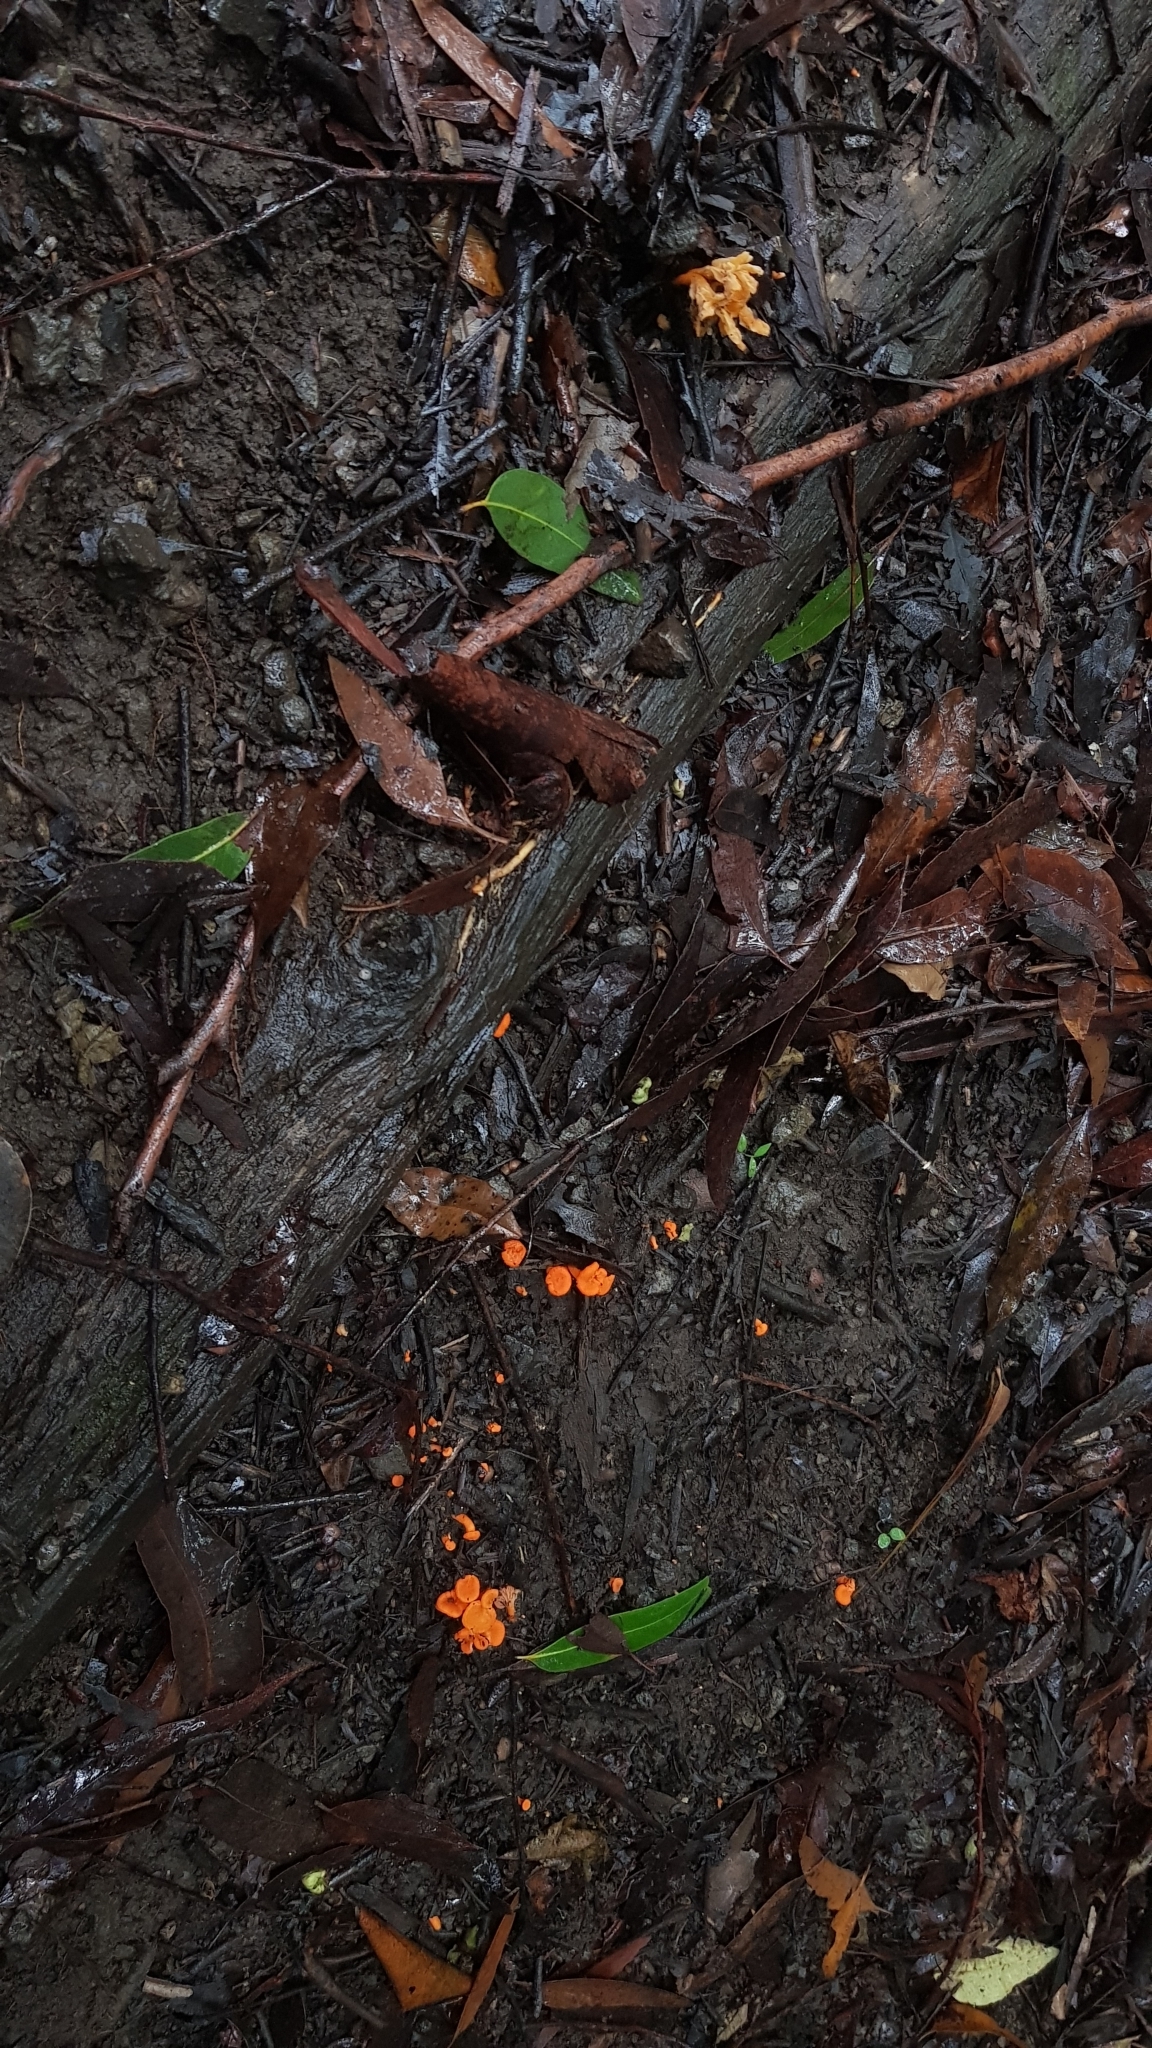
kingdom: Fungi
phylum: Basidiomycota
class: Agaricomycetes
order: Cantharellales
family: Hydnaceae
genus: Cantharellus
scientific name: Cantharellus
